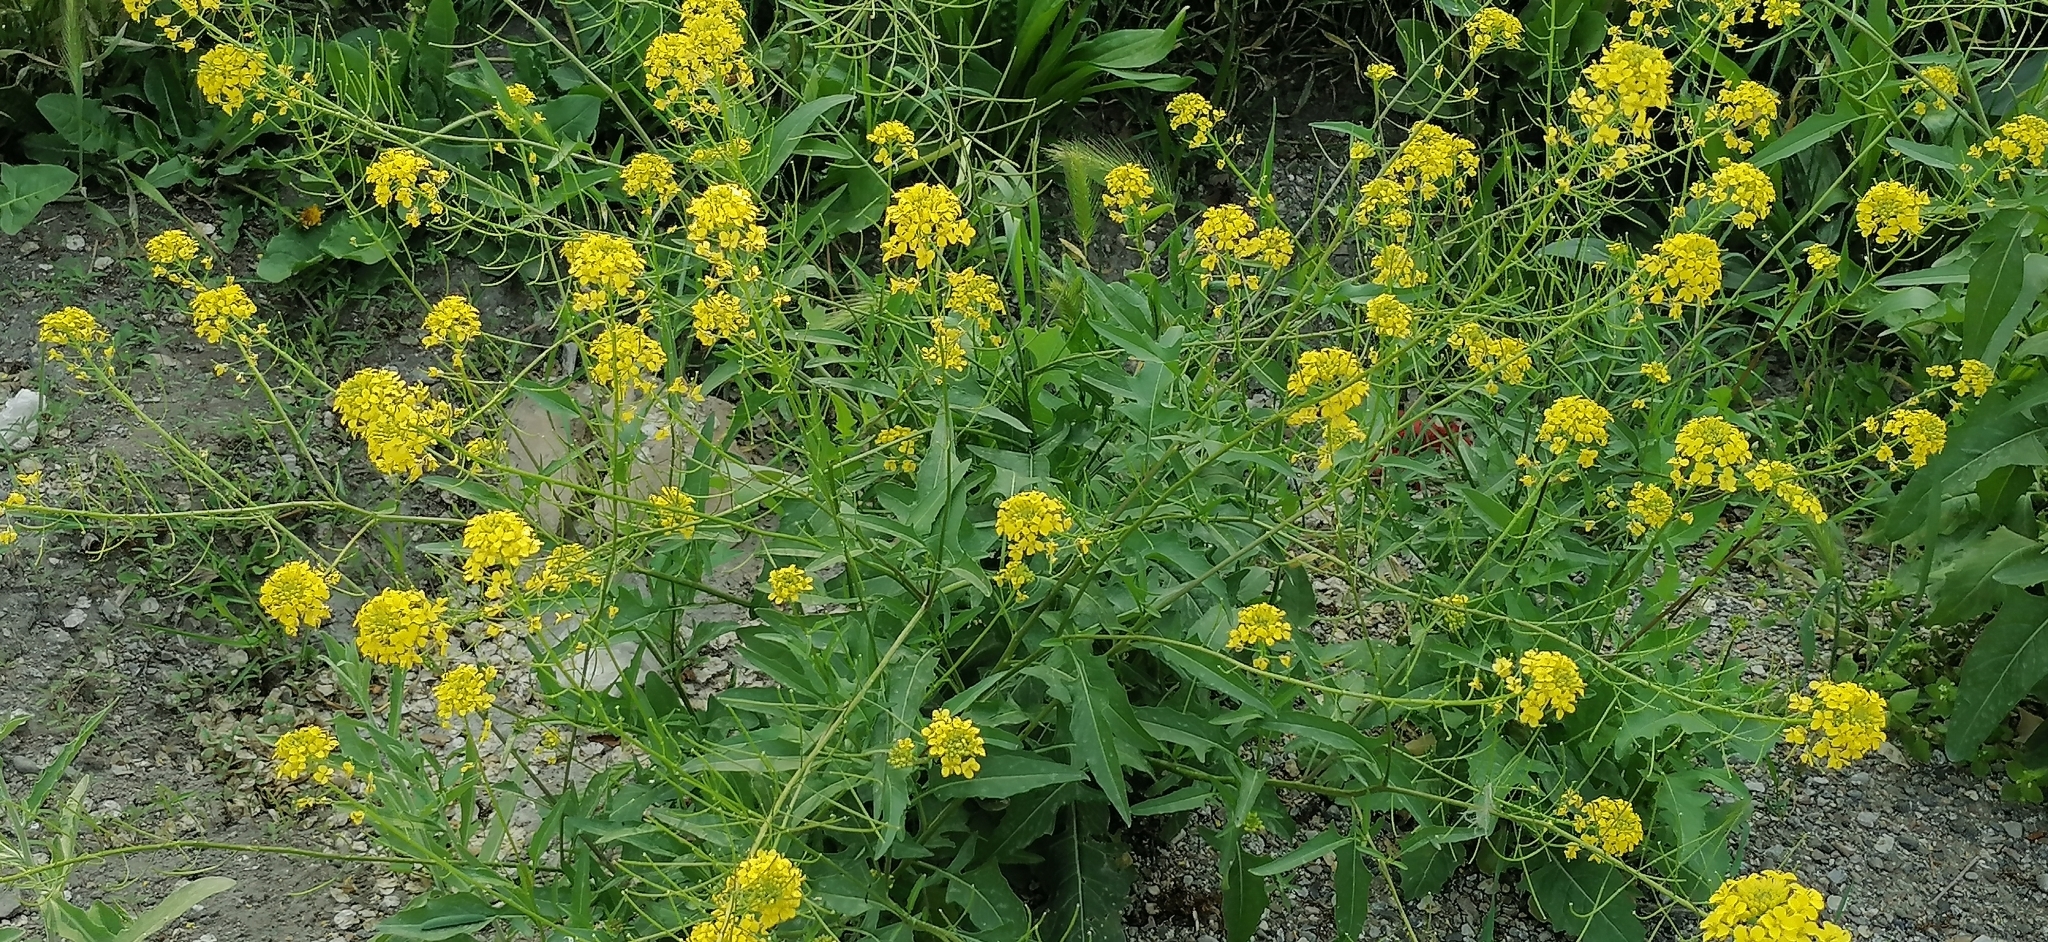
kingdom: Plantae
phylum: Tracheophyta
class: Magnoliopsida
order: Brassicales
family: Brassicaceae
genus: Sisymbrium
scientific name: Sisymbrium loeselii
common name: False london-rocket
